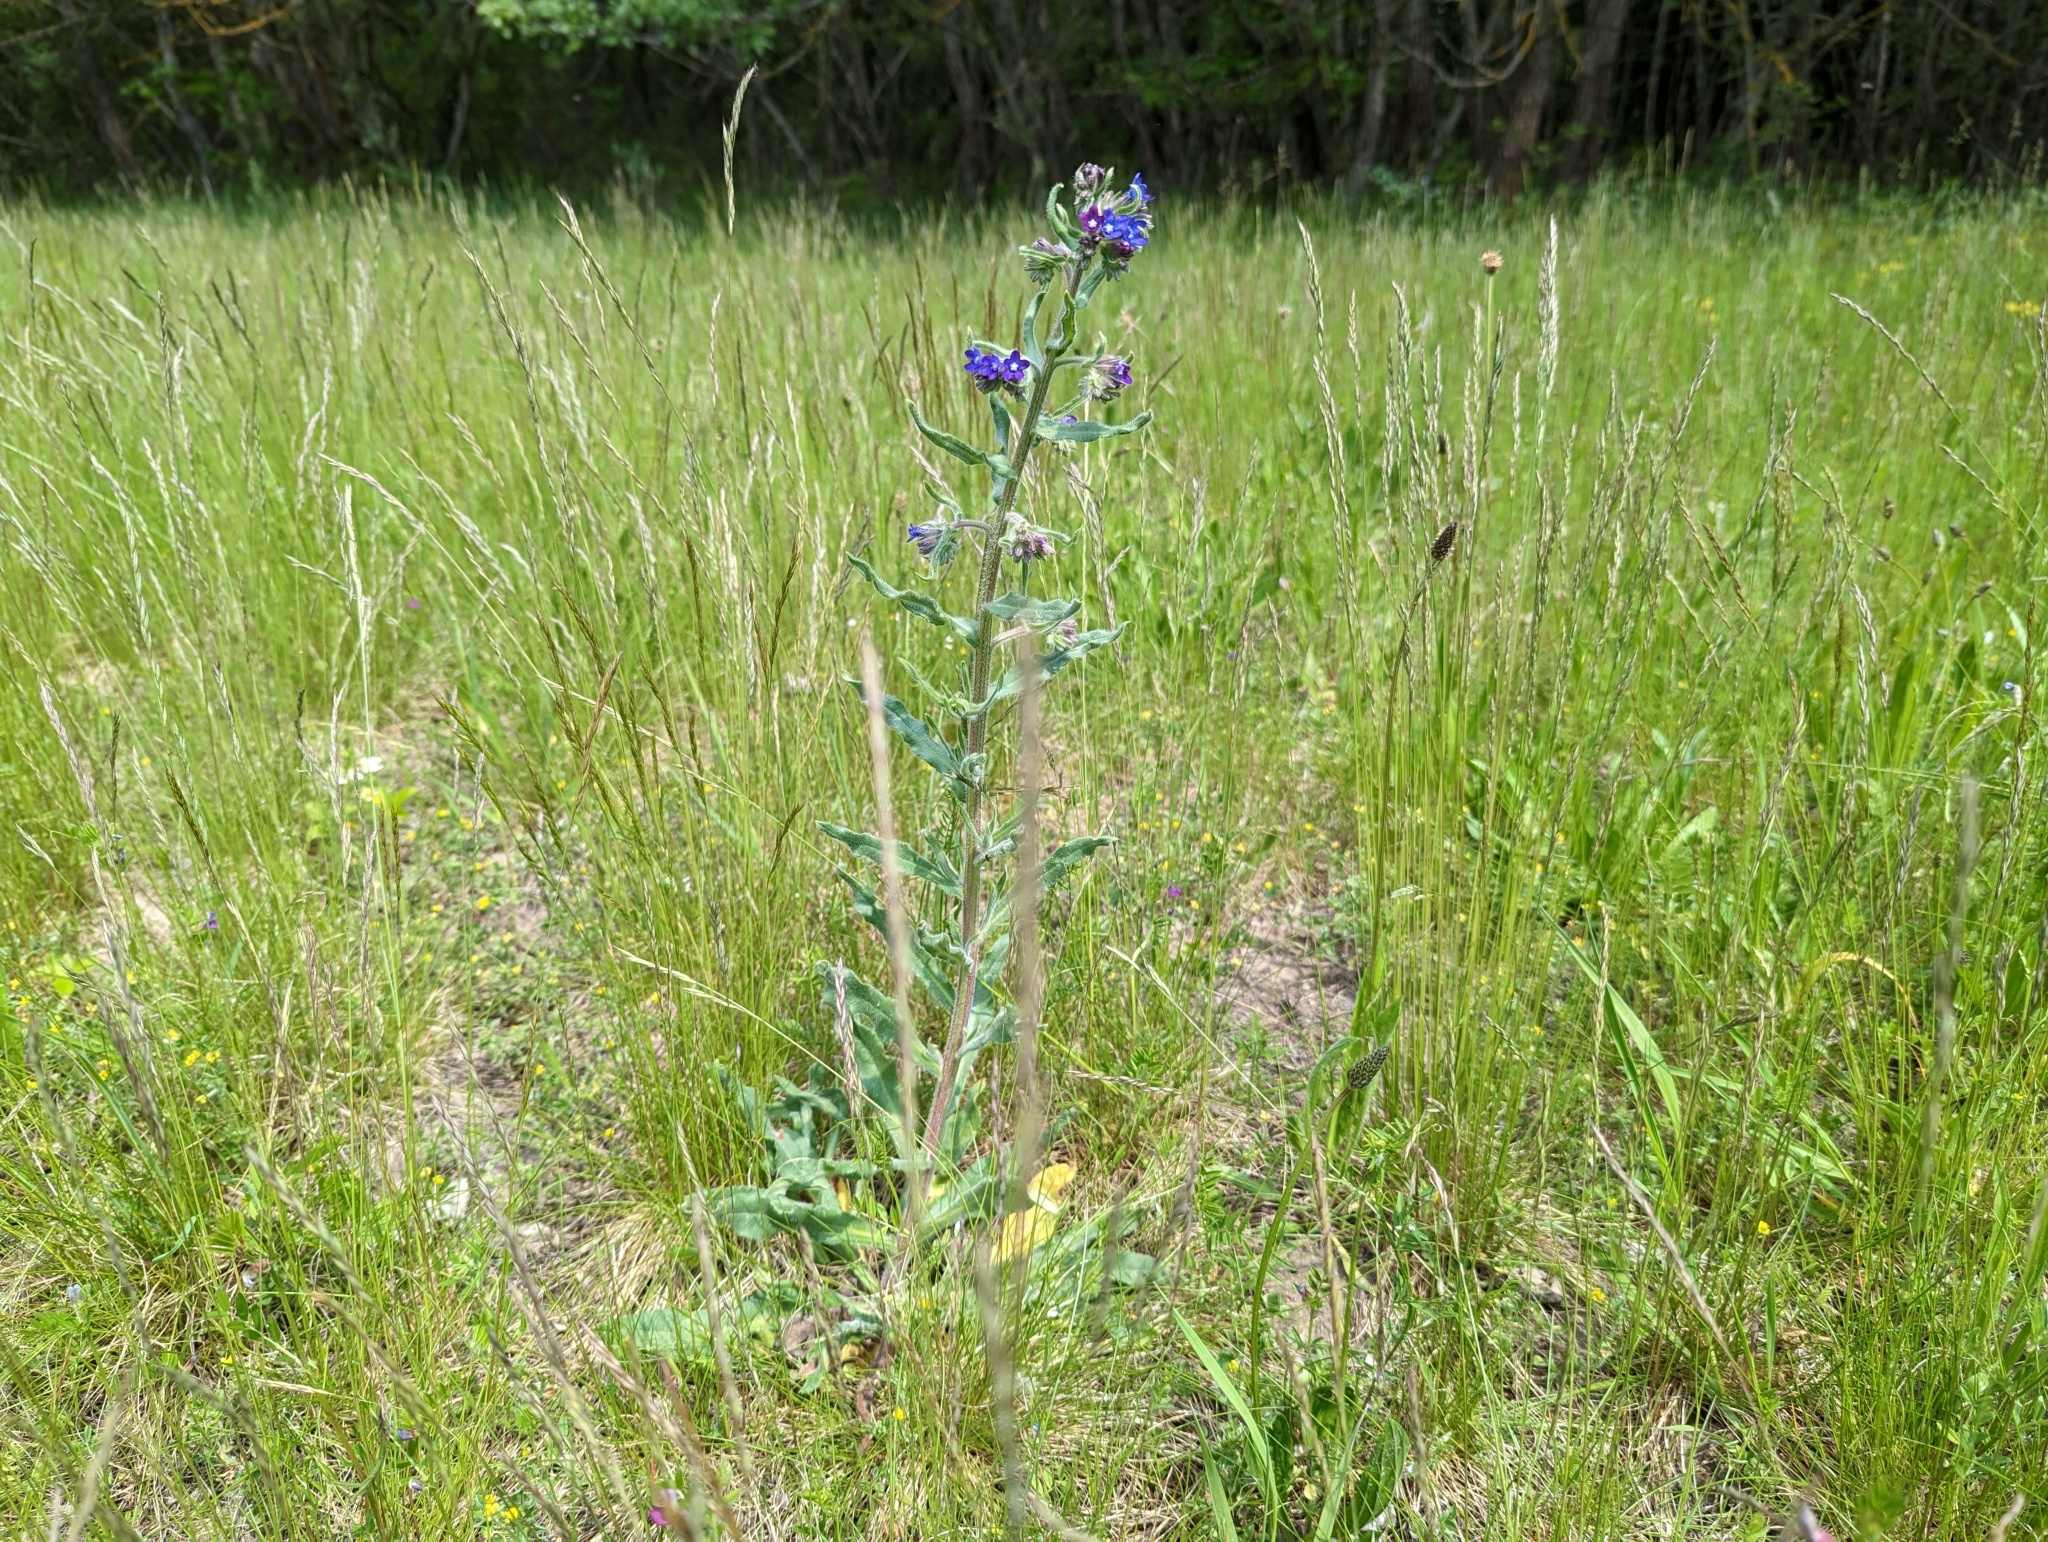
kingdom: Plantae
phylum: Tracheophyta
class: Magnoliopsida
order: Boraginales
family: Boraginaceae
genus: Anchusa
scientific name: Anchusa officinalis
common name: Alkanet
